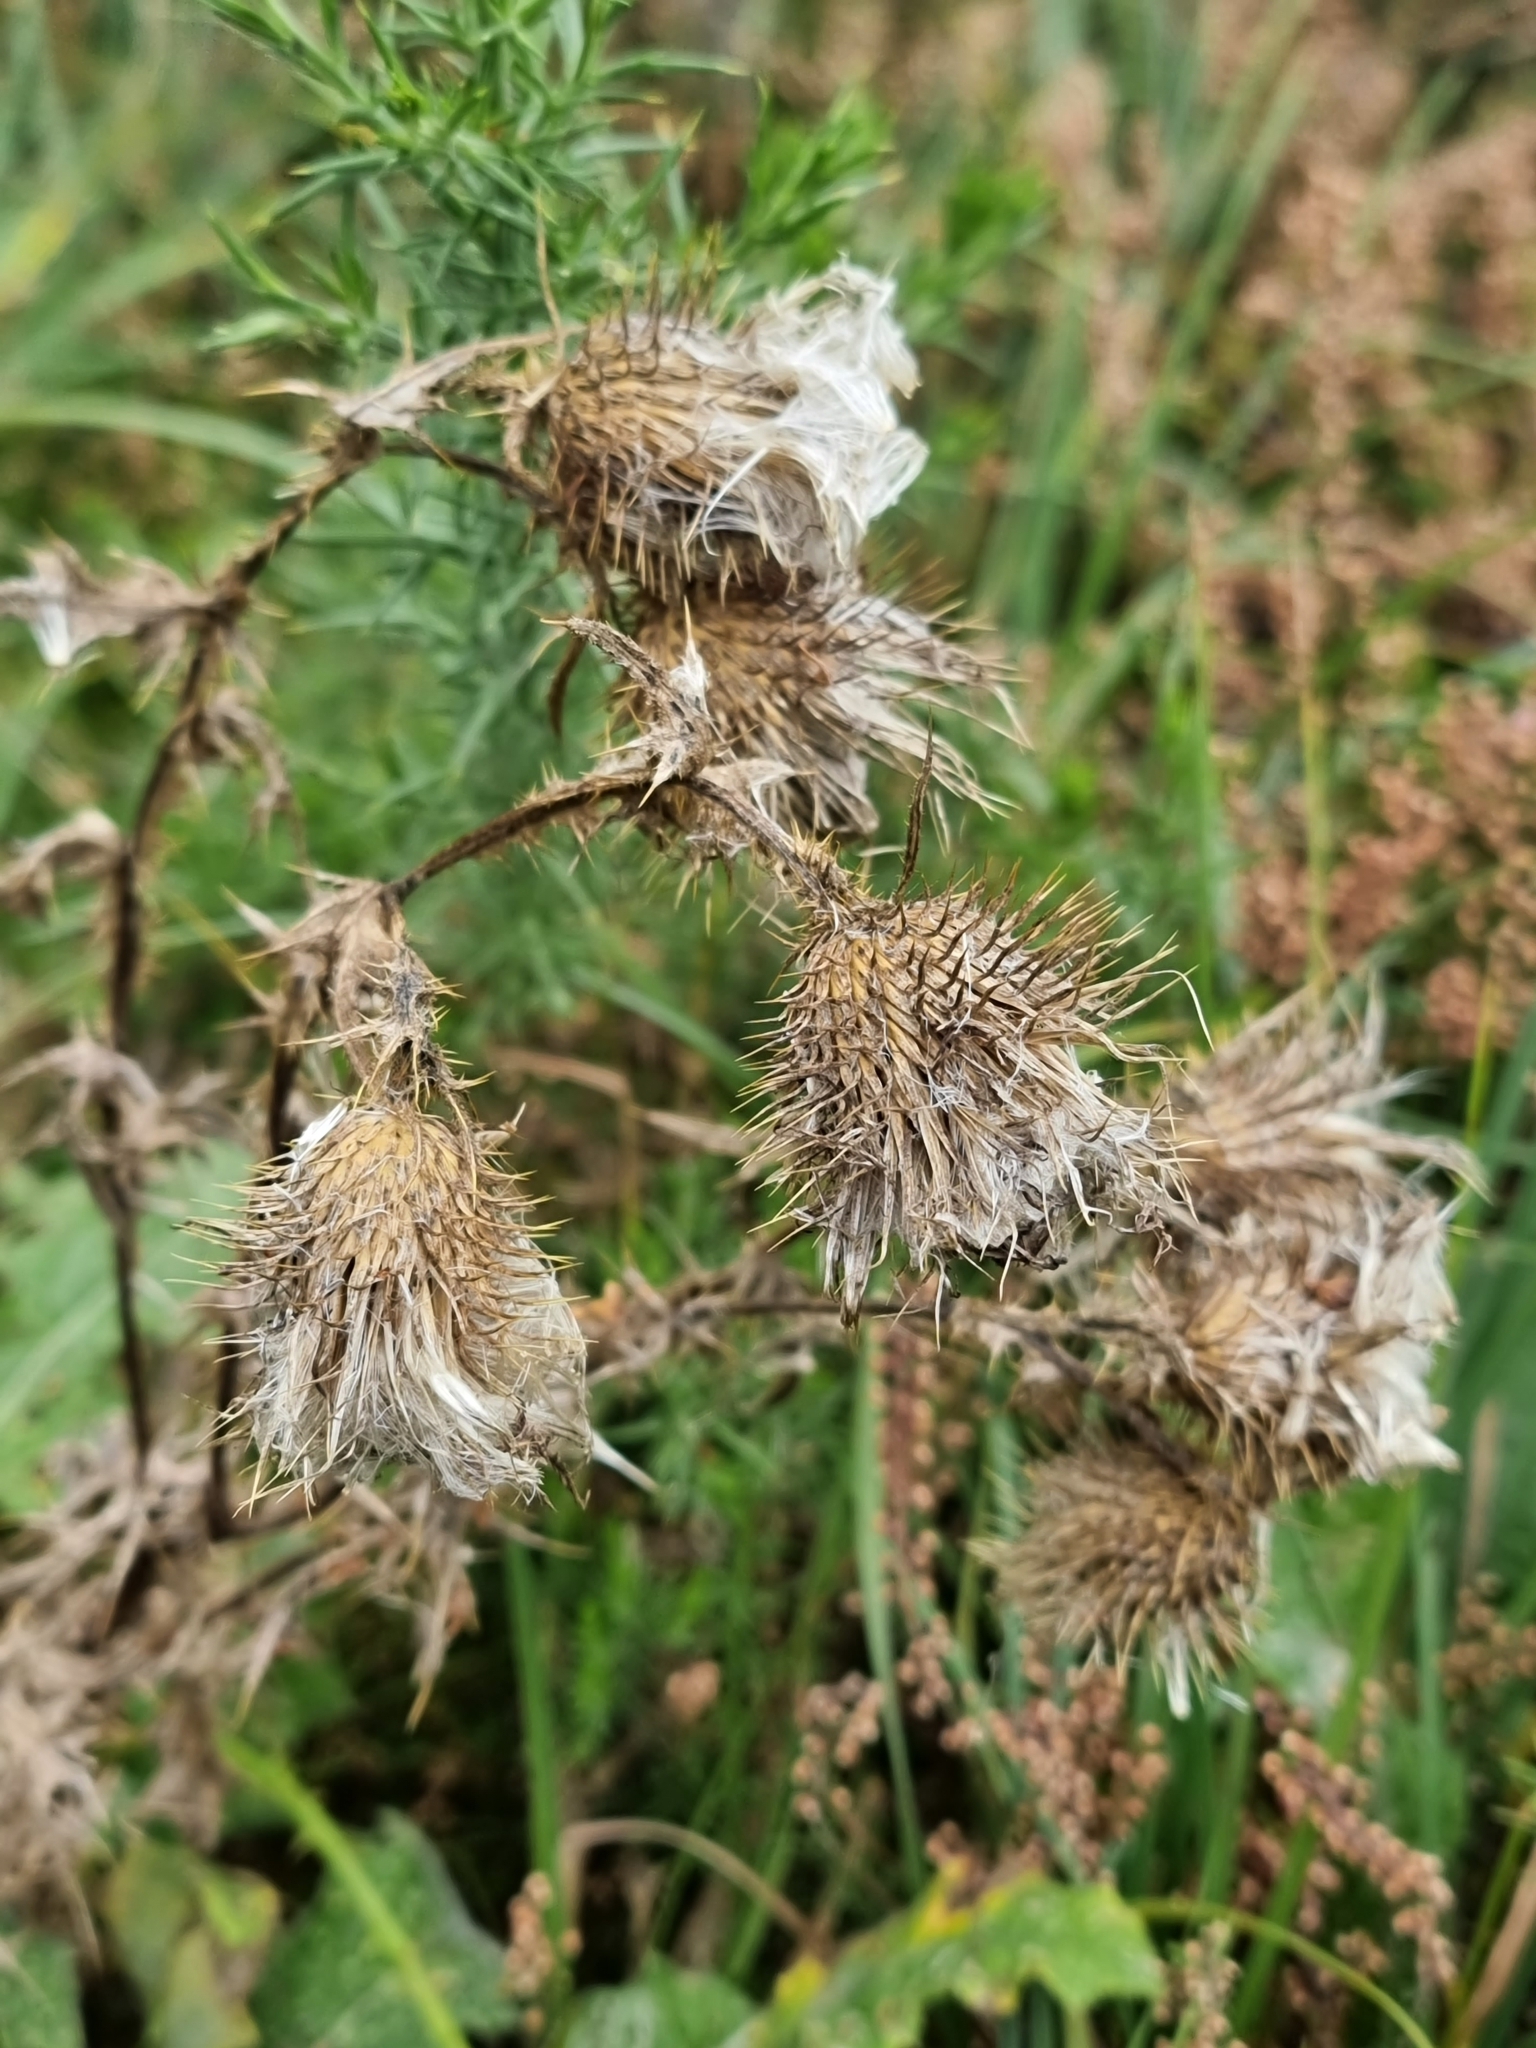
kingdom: Plantae
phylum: Tracheophyta
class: Magnoliopsida
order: Asterales
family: Asteraceae
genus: Cirsium
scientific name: Cirsium vulgare
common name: Bull thistle
